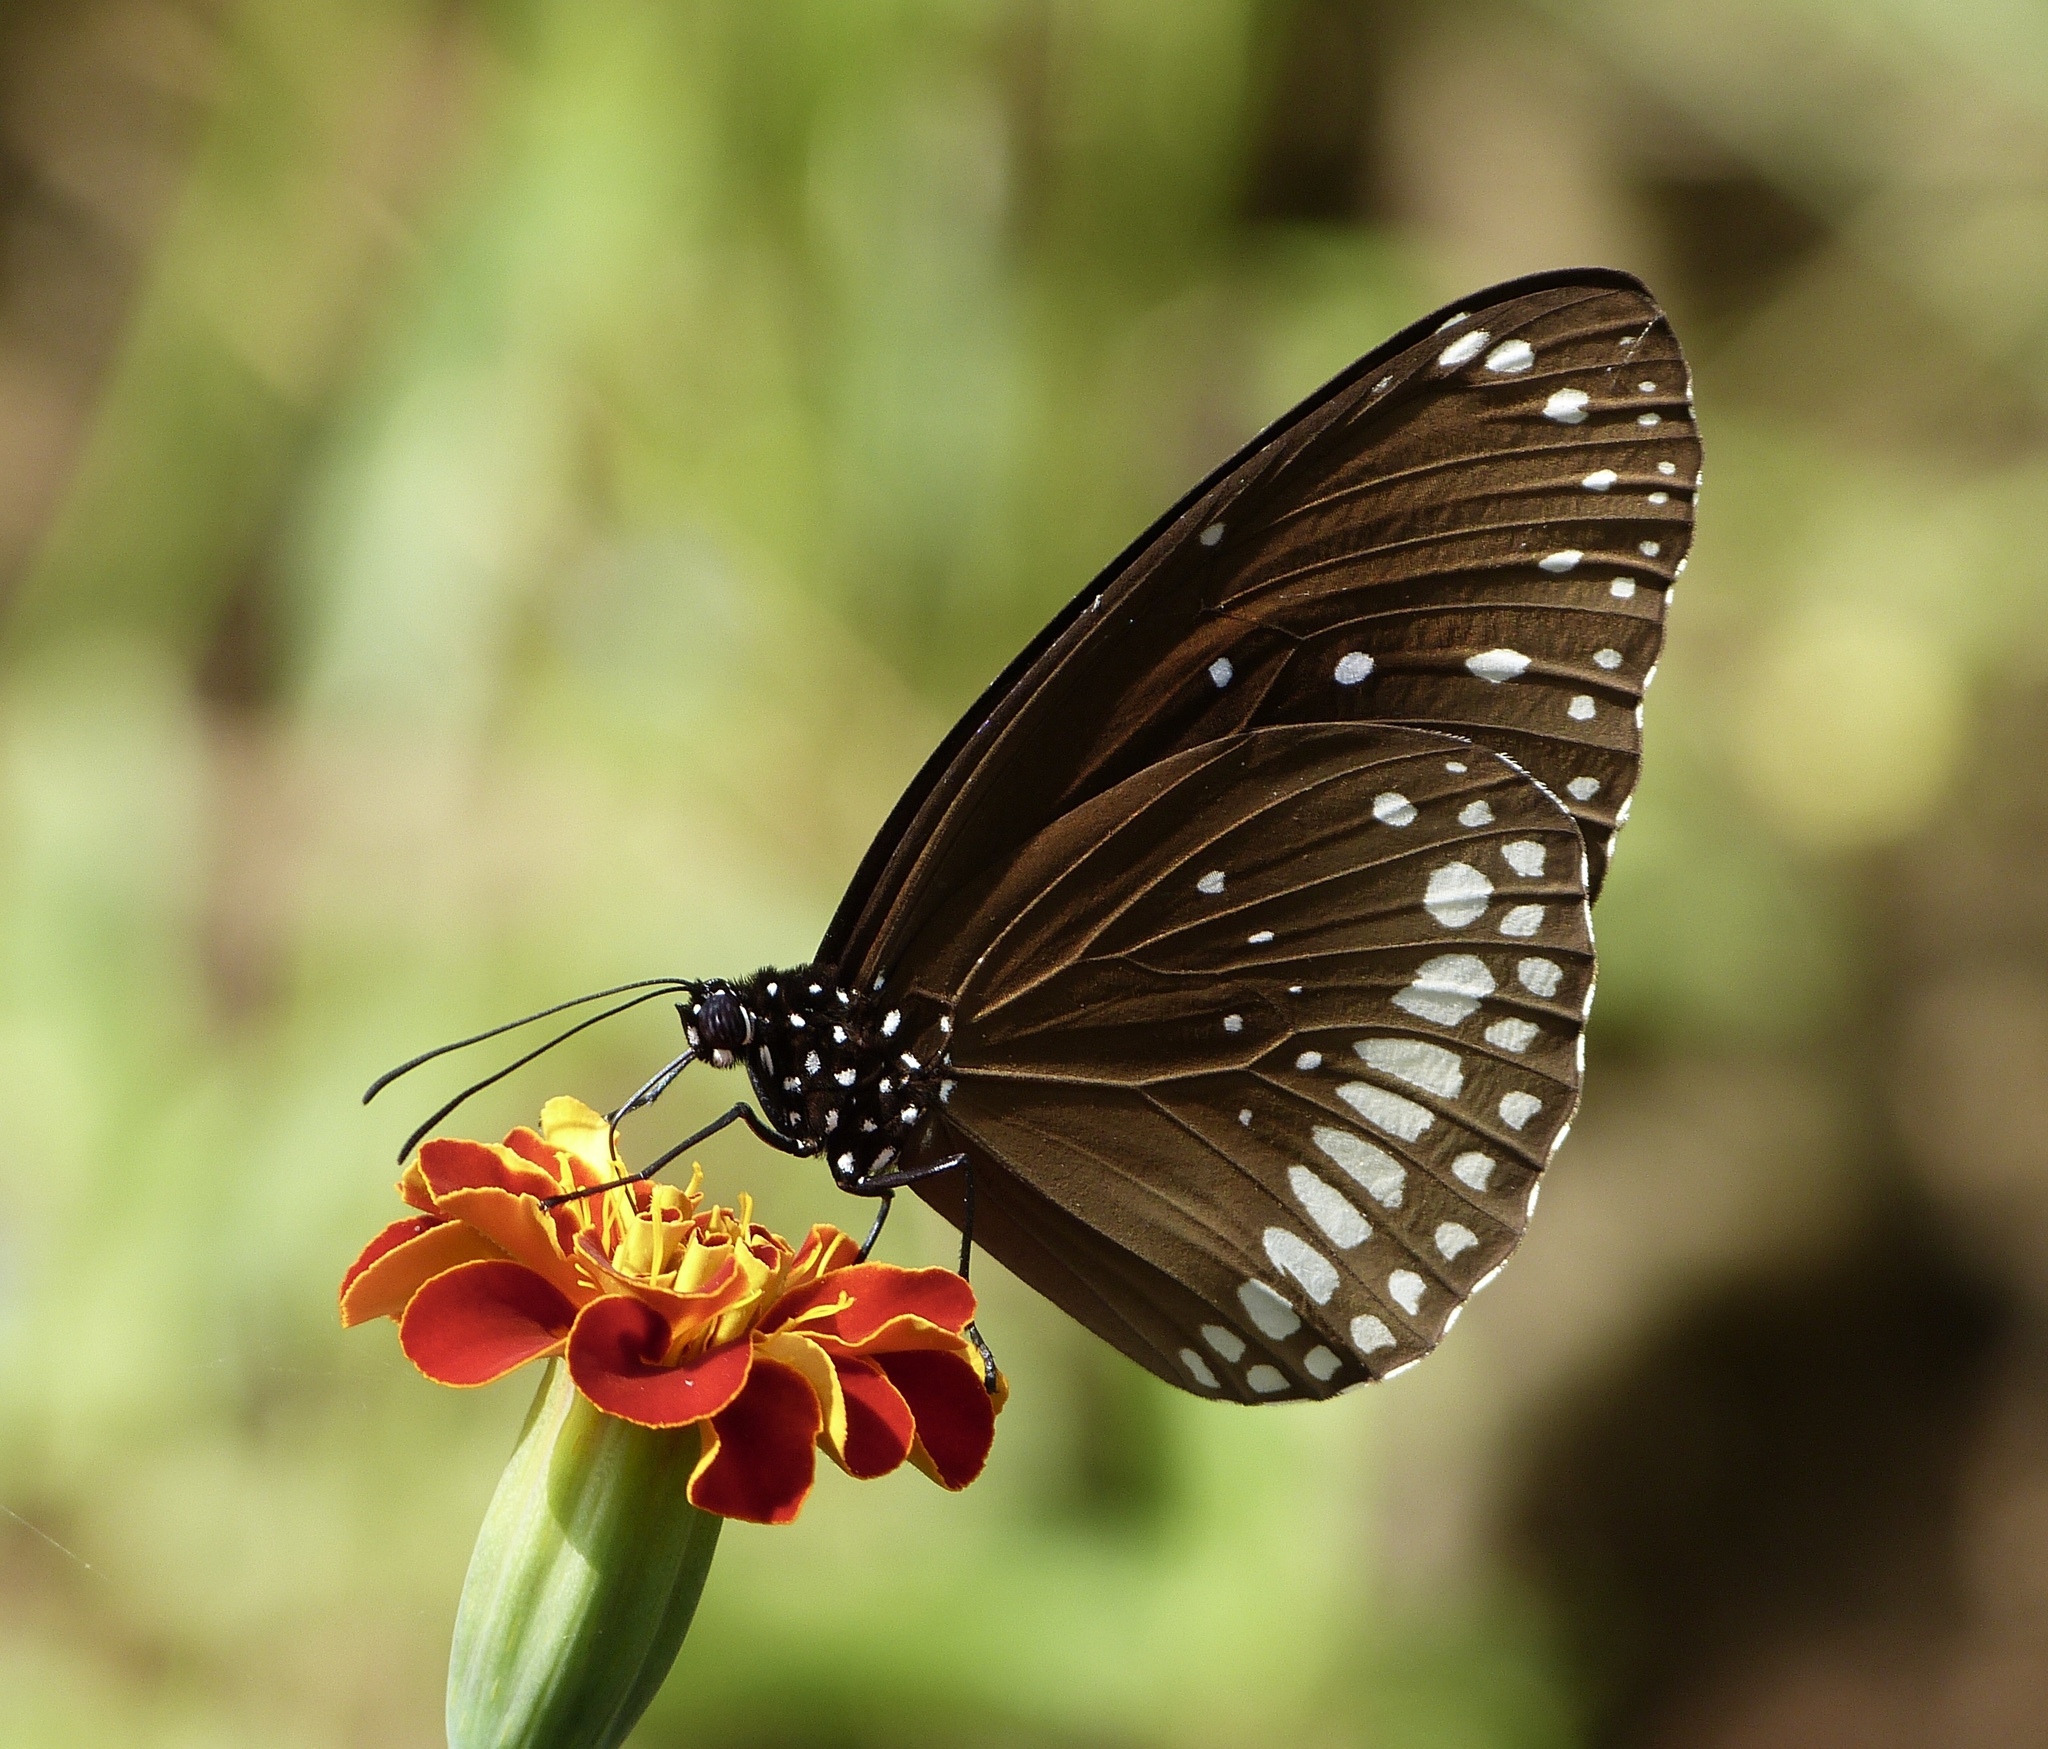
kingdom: Animalia
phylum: Arthropoda
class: Insecta
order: Lepidoptera
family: Nymphalidae
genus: Euploea
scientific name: Euploea core
